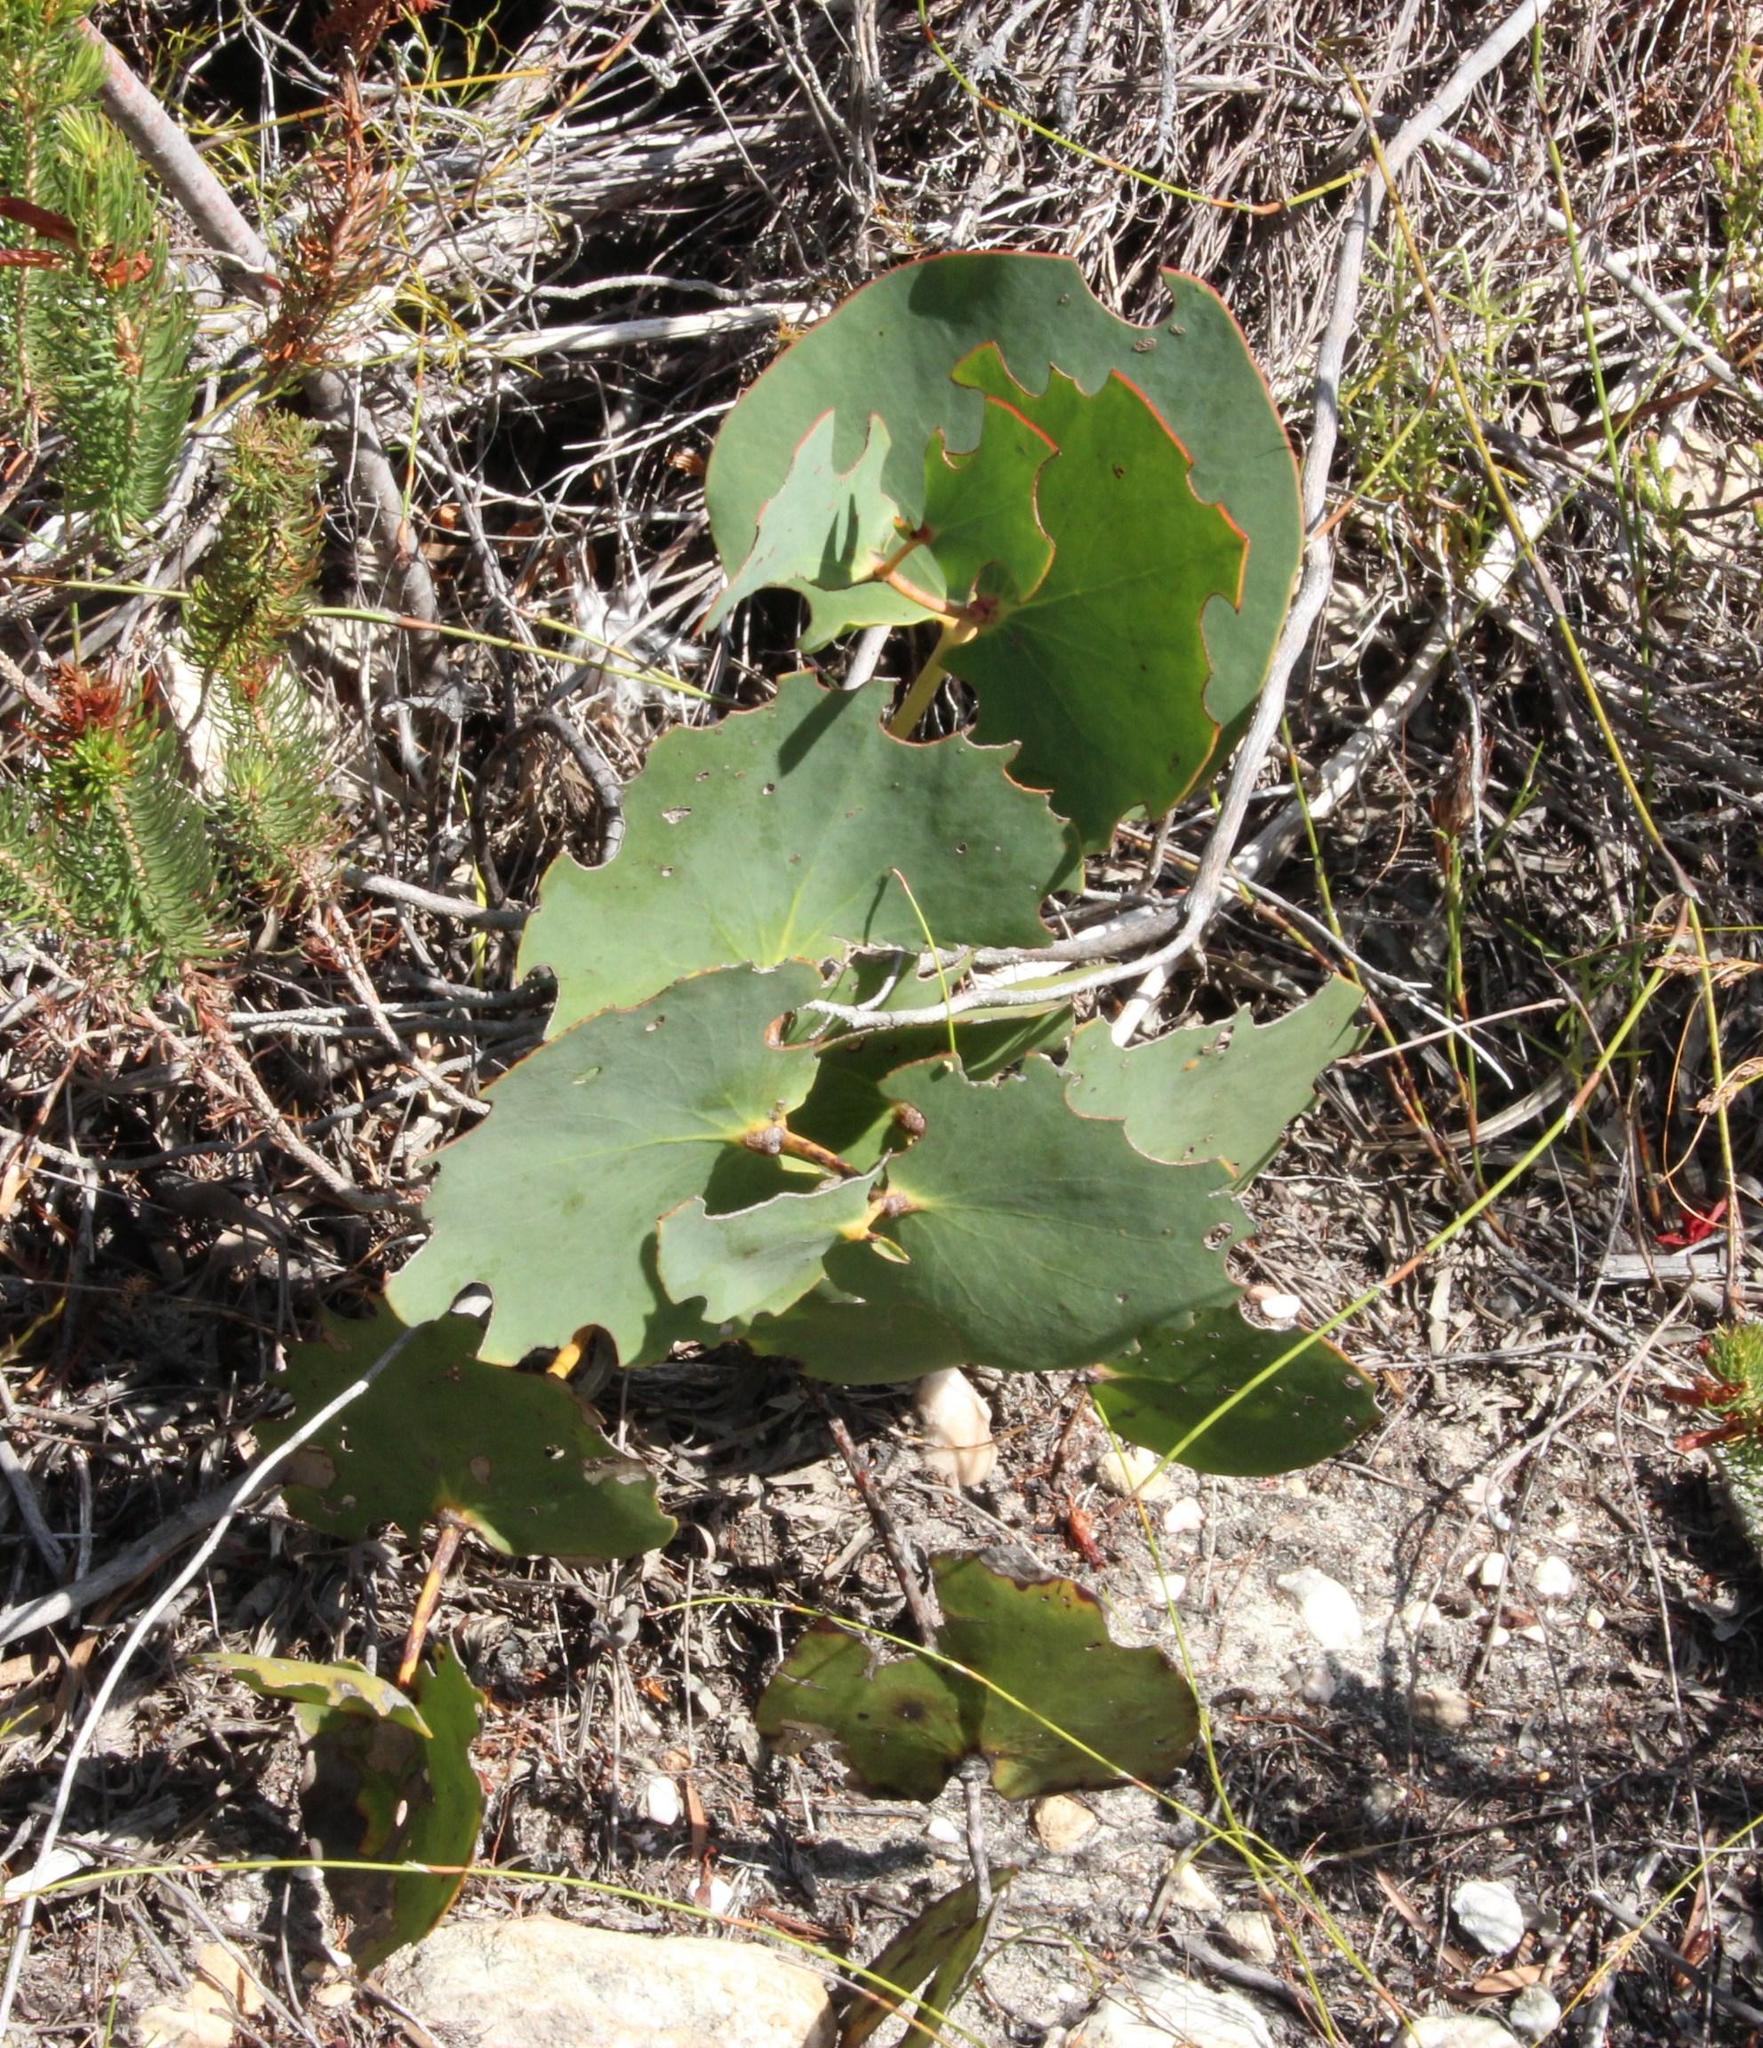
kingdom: Plantae
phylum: Tracheophyta
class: Magnoliopsida
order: Proteales
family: Proteaceae
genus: Protea
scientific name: Protea cordata
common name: Heart-leaf sugarbush
